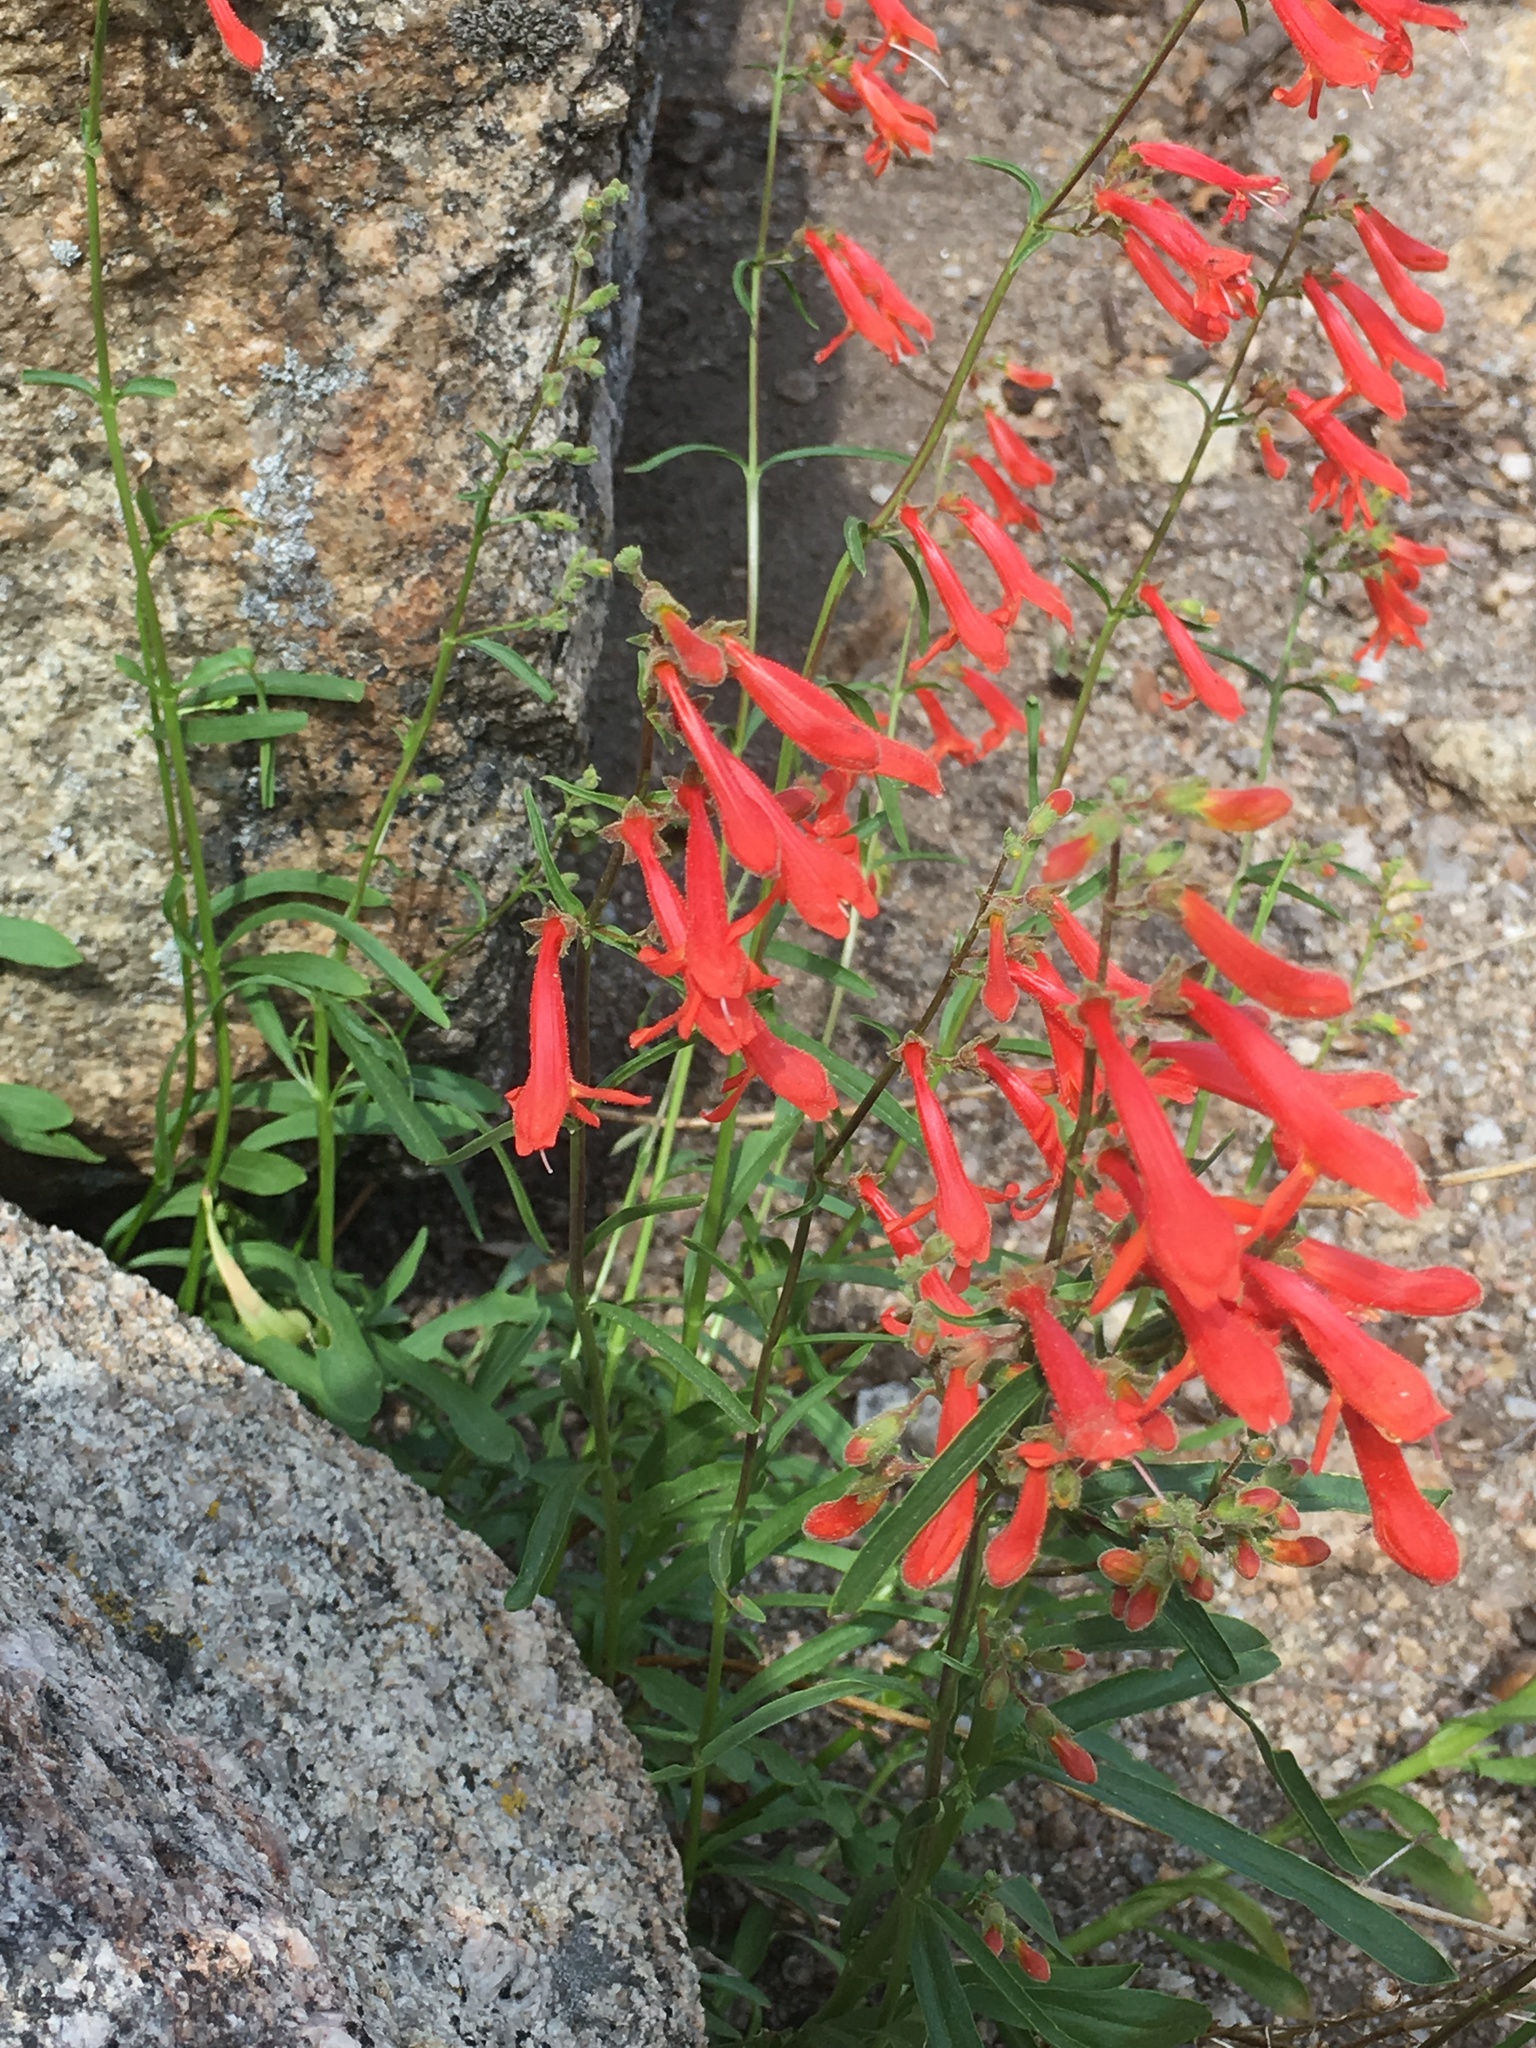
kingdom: Plantae
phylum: Tracheophyta
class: Magnoliopsida
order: Lamiales
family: Plantaginaceae
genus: Penstemon
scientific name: Penstemon rostriflorus
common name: Bridges's penstemon
